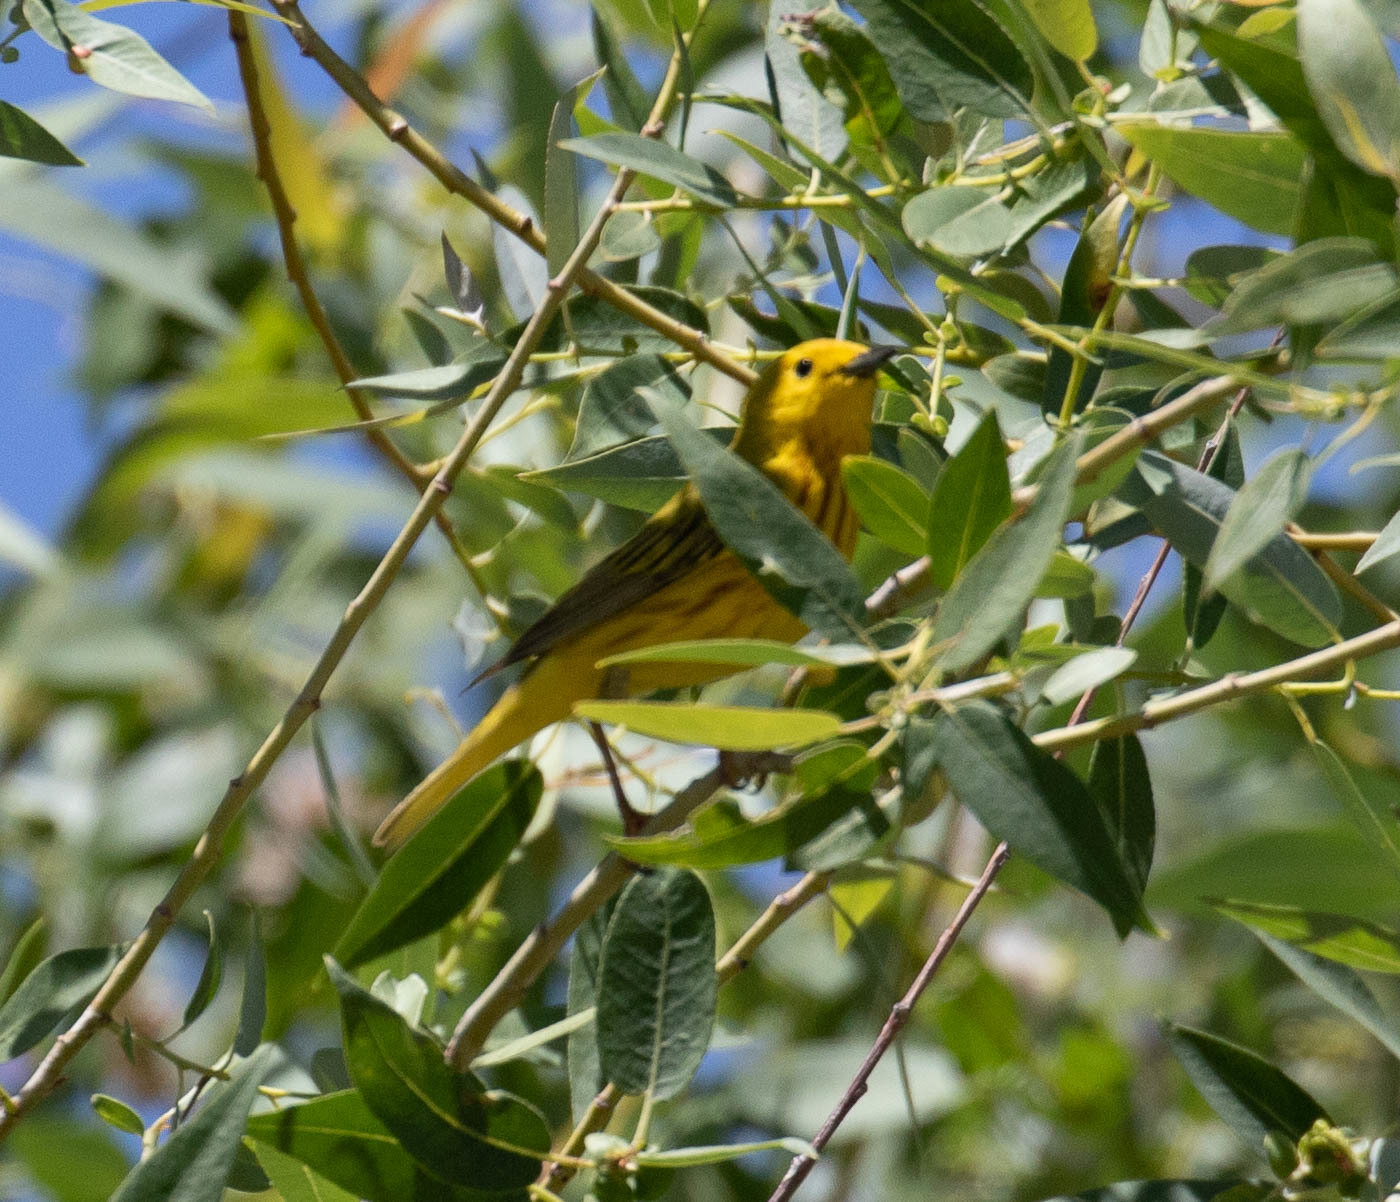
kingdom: Animalia
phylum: Chordata
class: Aves
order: Passeriformes
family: Parulidae
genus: Setophaga
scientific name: Setophaga petechia
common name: Yellow warbler
